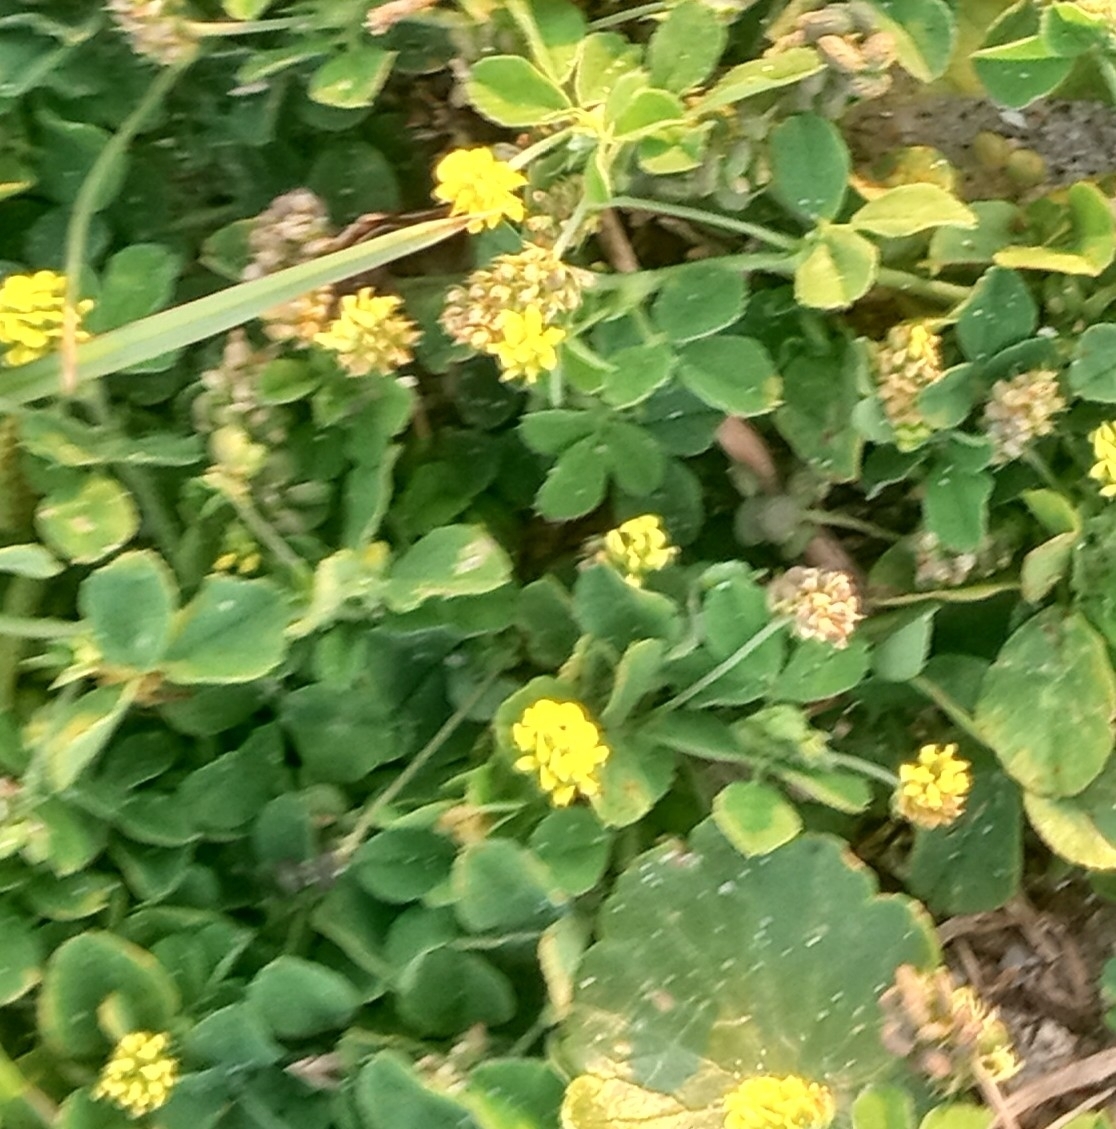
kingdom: Plantae
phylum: Tracheophyta
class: Magnoliopsida
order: Fabales
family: Fabaceae
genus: Medicago
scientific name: Medicago lupulina
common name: Black medick
